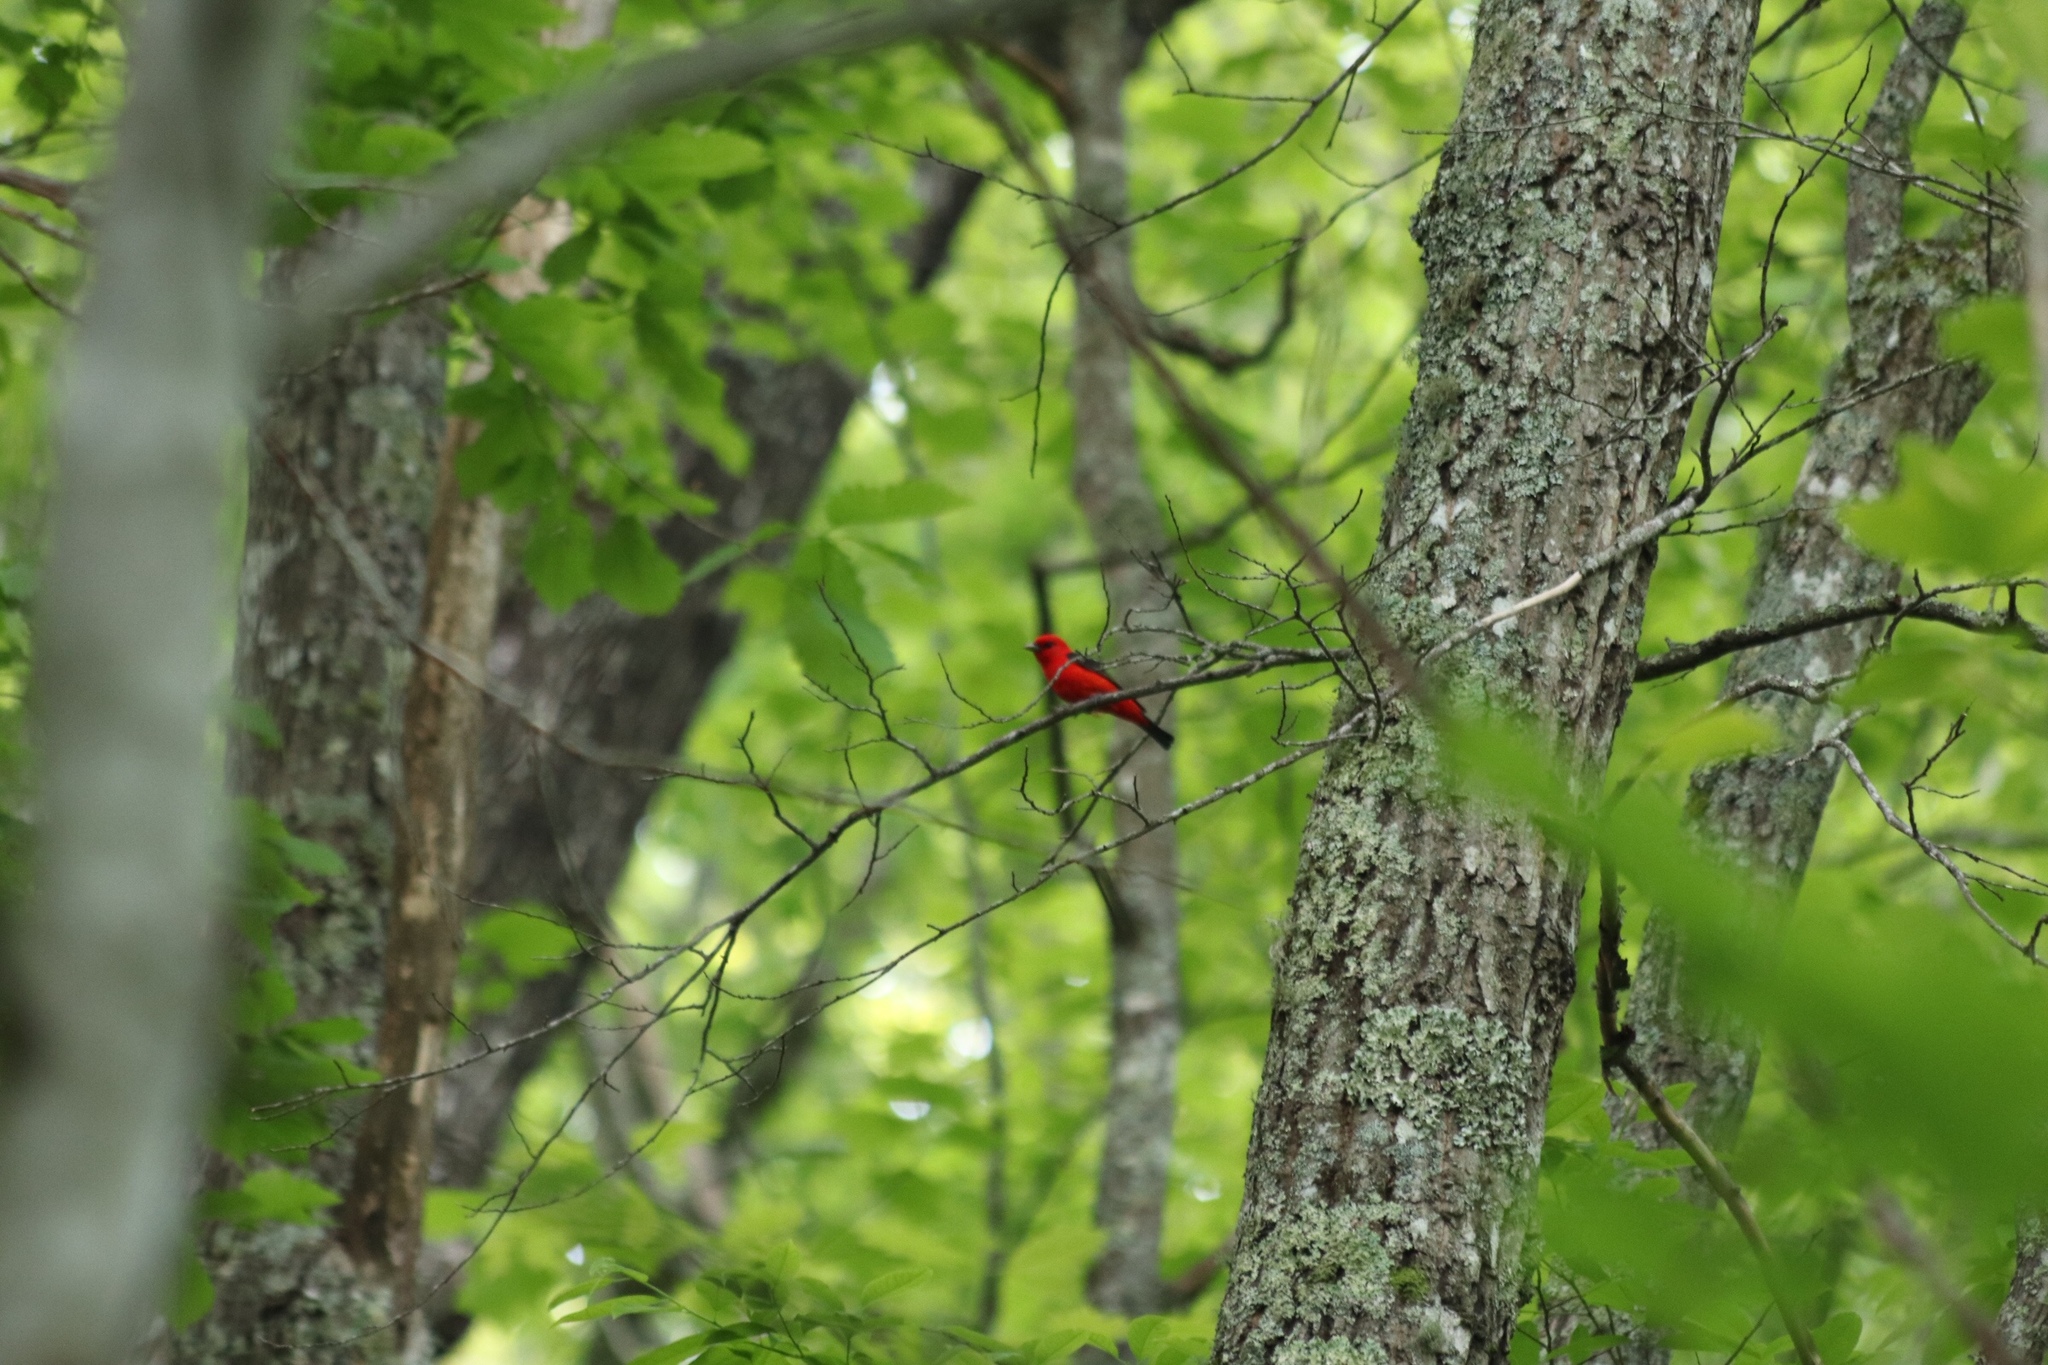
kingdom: Animalia
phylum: Chordata
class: Aves
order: Passeriformes
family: Cardinalidae
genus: Piranga
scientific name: Piranga olivacea
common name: Scarlet tanager
